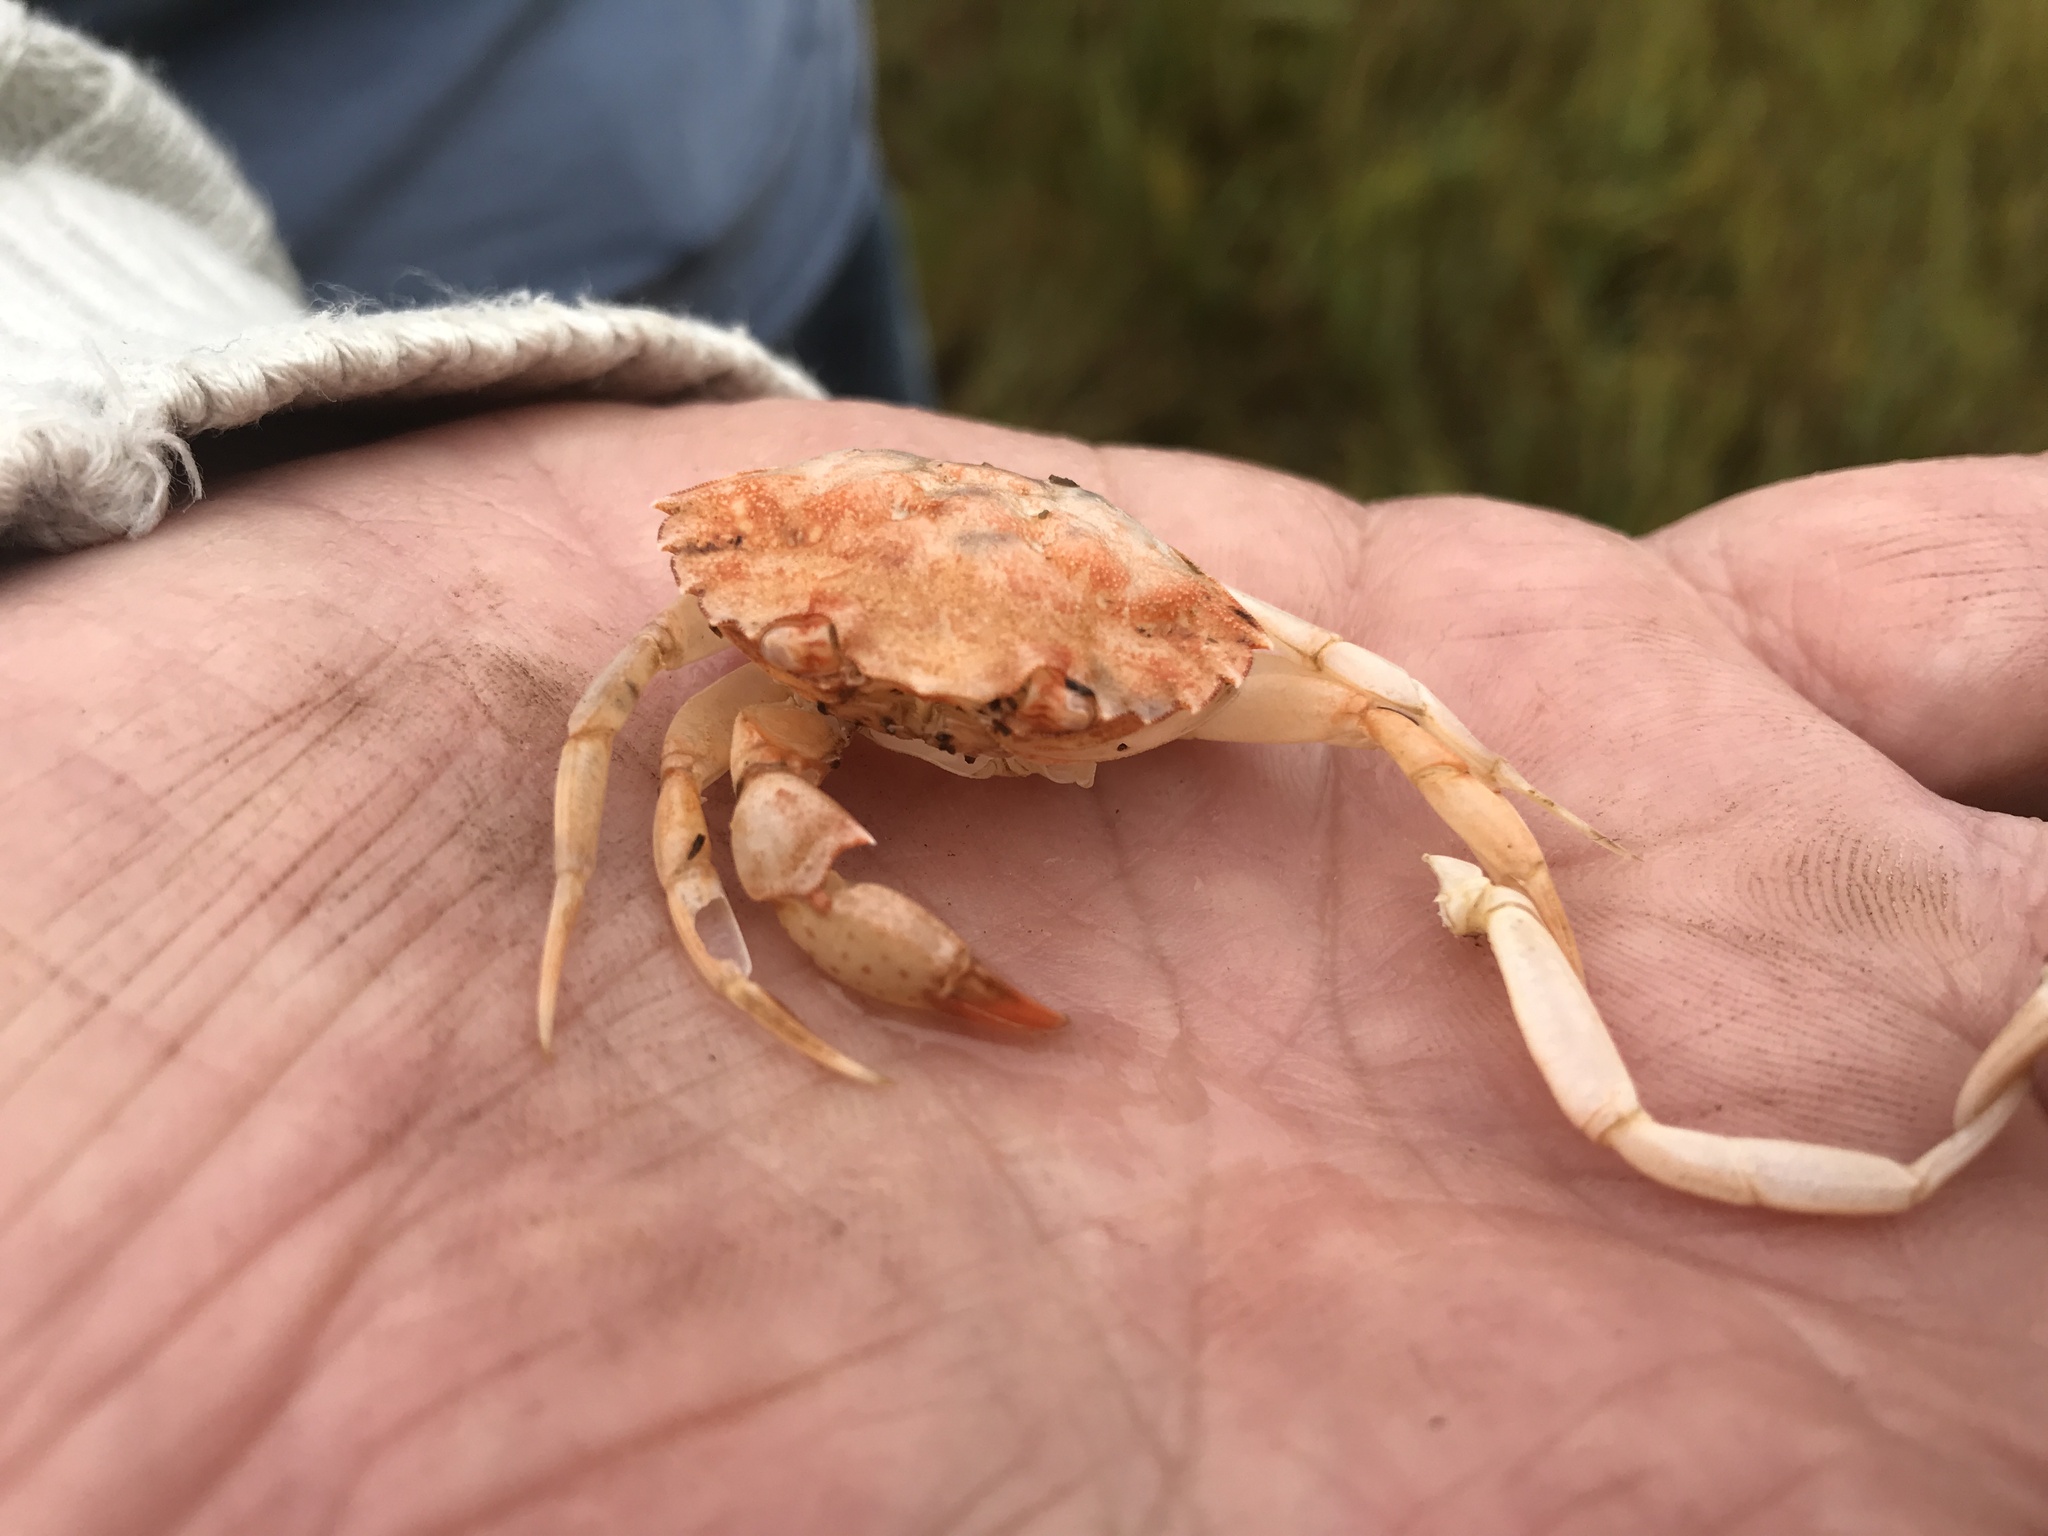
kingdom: Animalia
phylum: Arthropoda
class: Malacostraca
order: Decapoda
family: Carcinidae
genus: Carcinus
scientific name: Carcinus maenas
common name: European green crab
